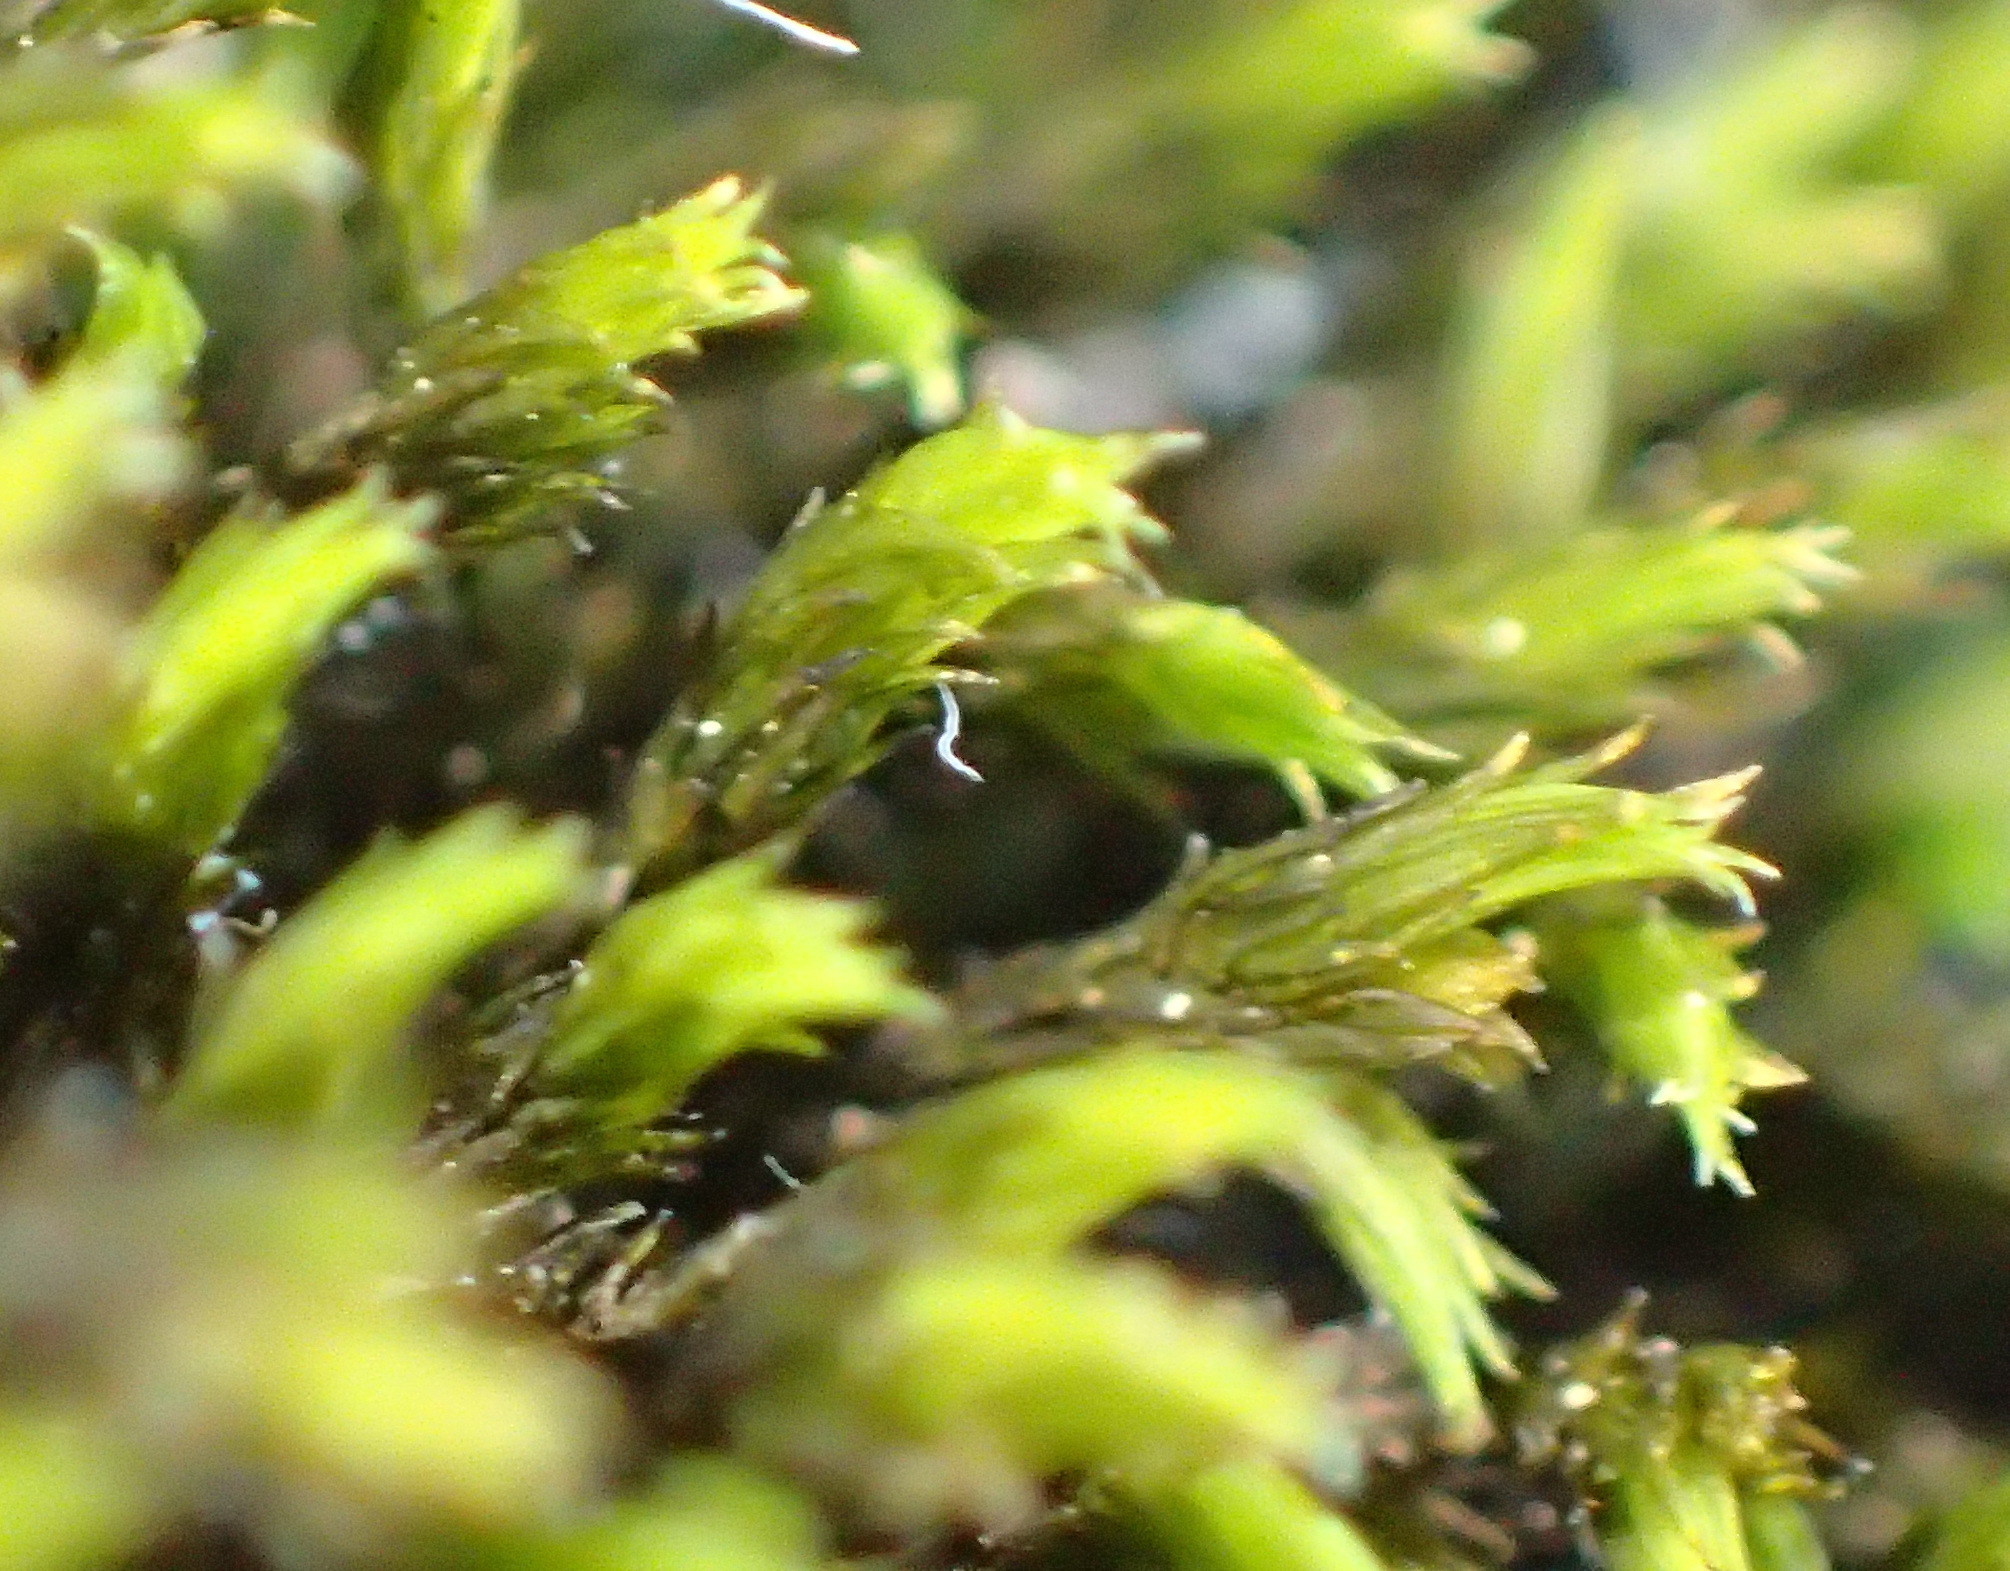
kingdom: Plantae
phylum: Bryophyta
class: Bryopsida
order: Grimmiales
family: Grimmiaceae
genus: Bucklandiella
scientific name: Bucklandiella lamprocarpa
